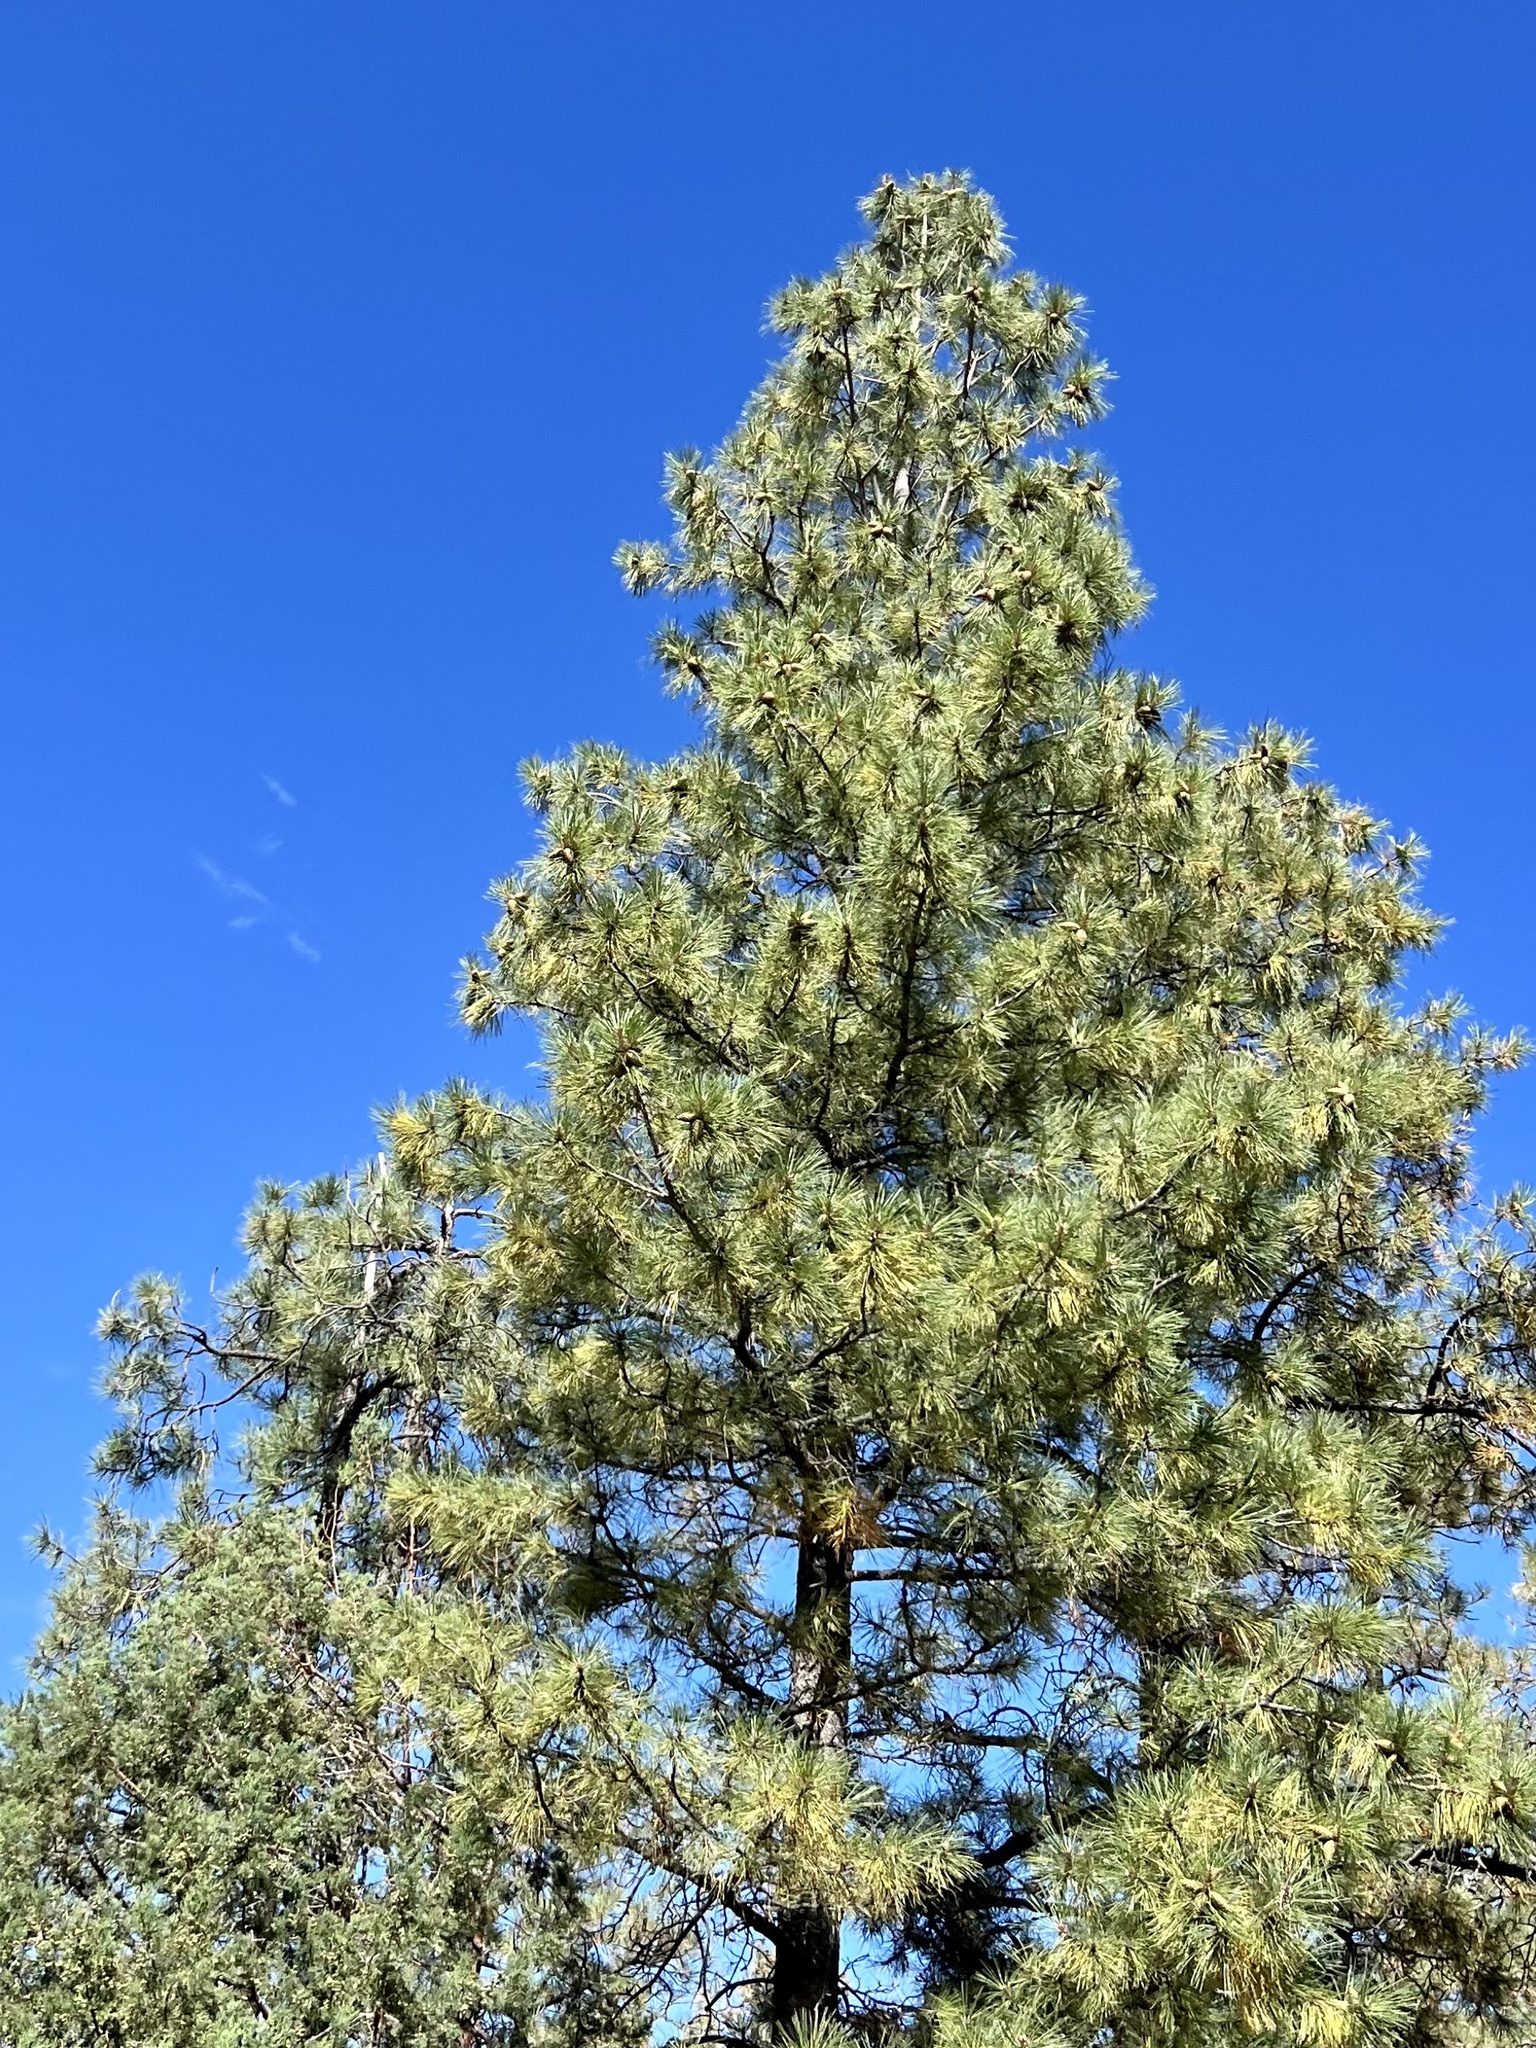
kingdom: Plantae
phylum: Tracheophyta
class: Pinopsida
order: Pinales
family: Pinaceae
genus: Pinus
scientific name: Pinus ponderosa
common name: Western yellow-pine
